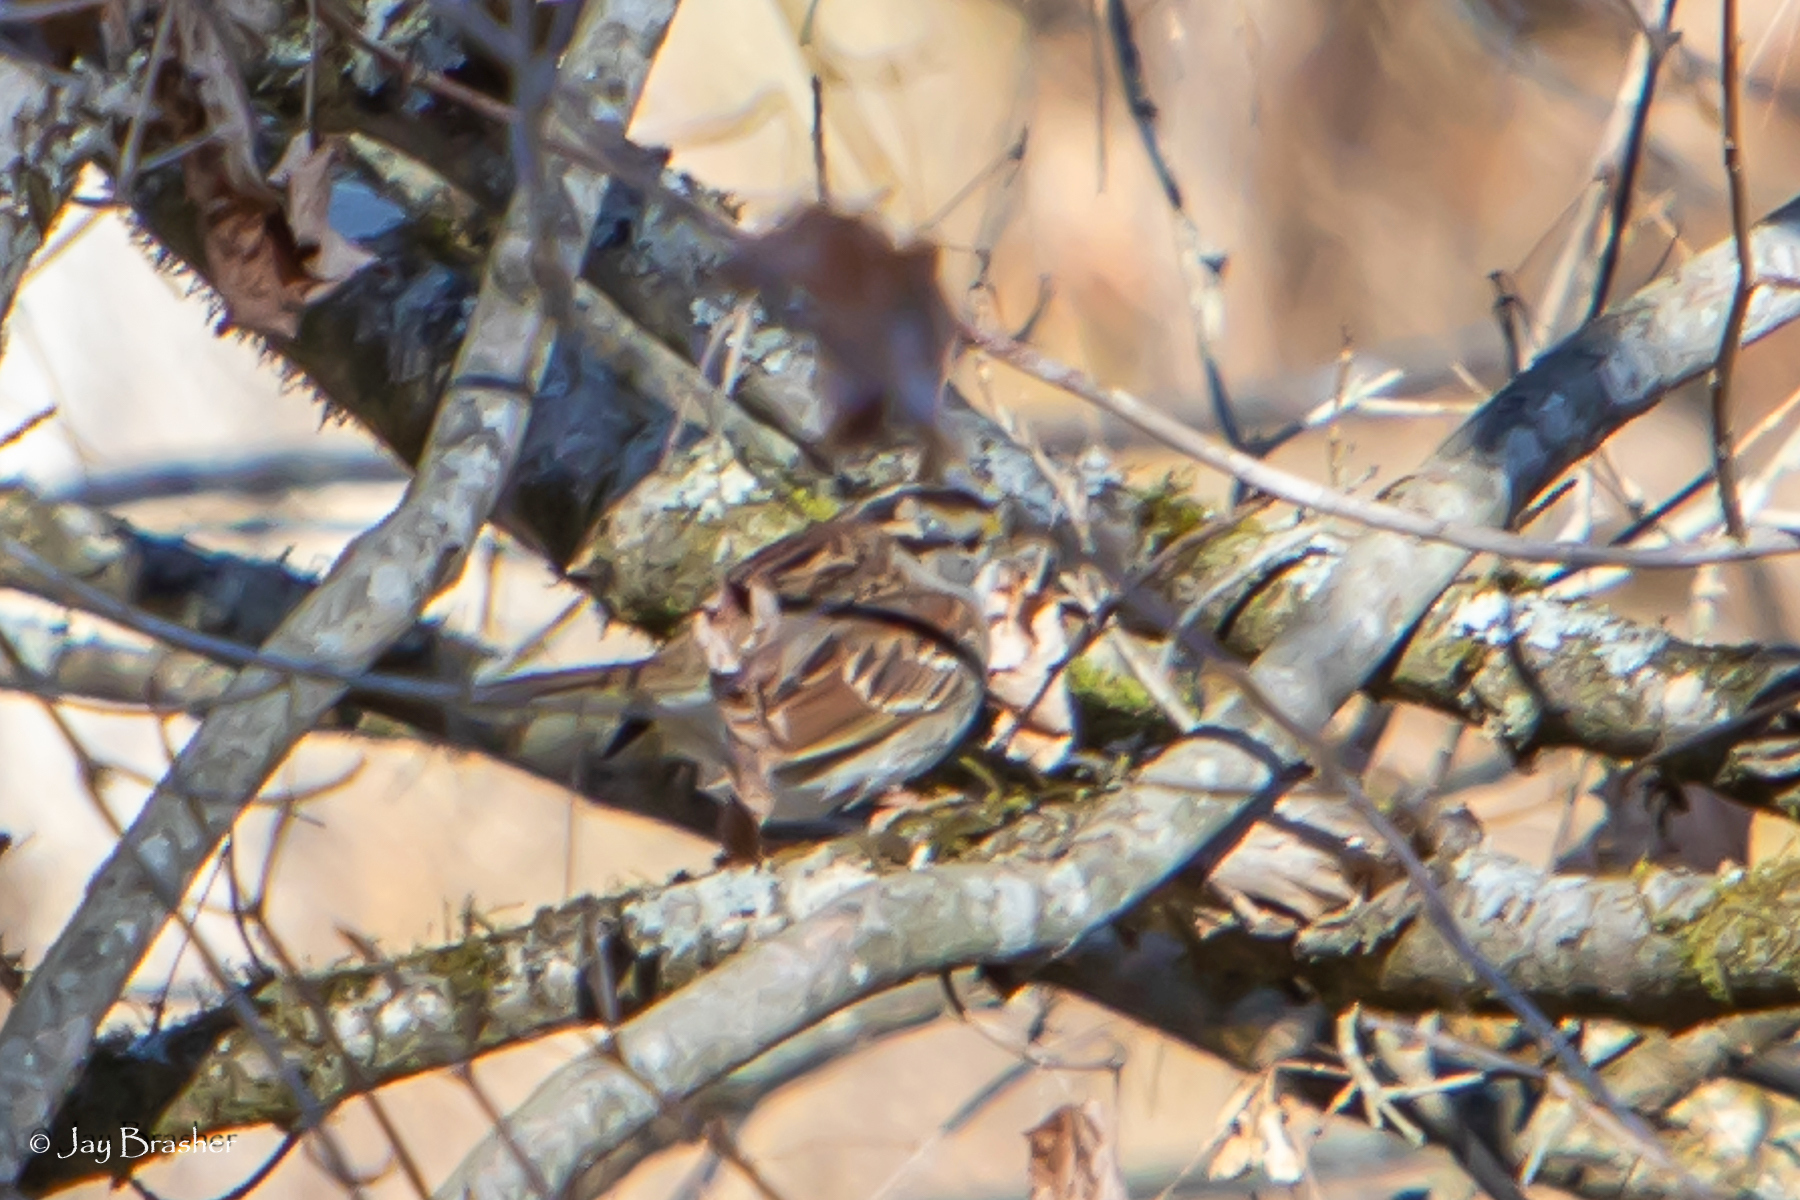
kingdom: Animalia
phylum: Chordata
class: Aves
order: Passeriformes
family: Passerellidae
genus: Zonotrichia
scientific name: Zonotrichia albicollis
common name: White-throated sparrow
